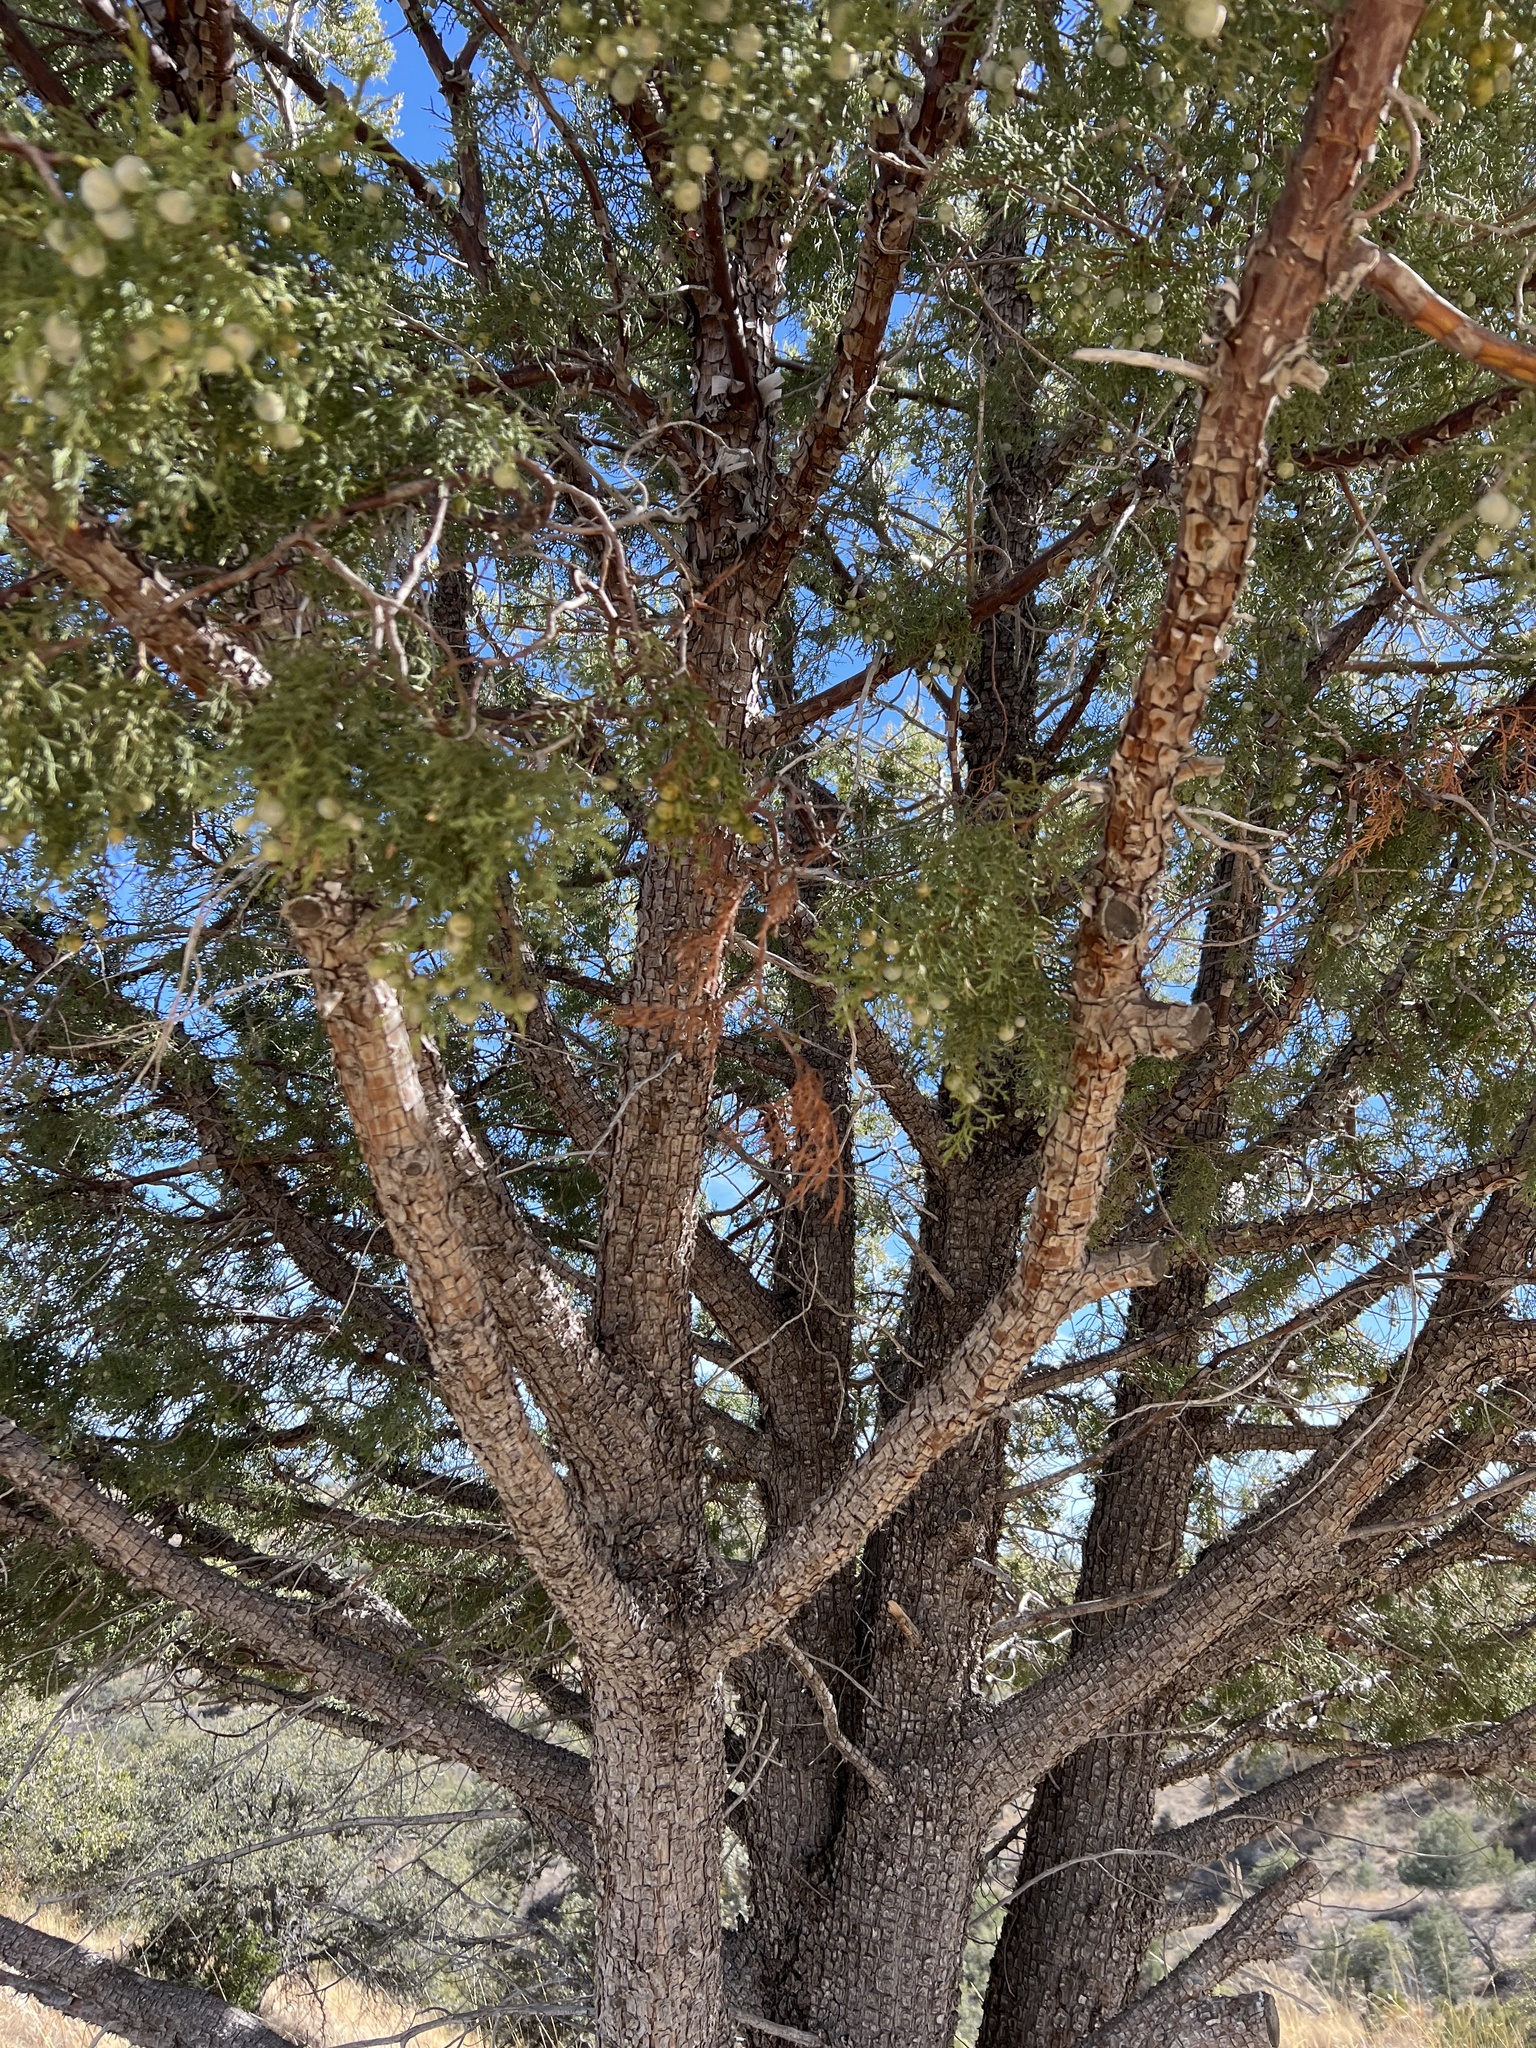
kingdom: Plantae
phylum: Tracheophyta
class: Pinopsida
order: Pinales
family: Cupressaceae
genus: Juniperus
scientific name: Juniperus deppeana
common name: Alligator juniper
